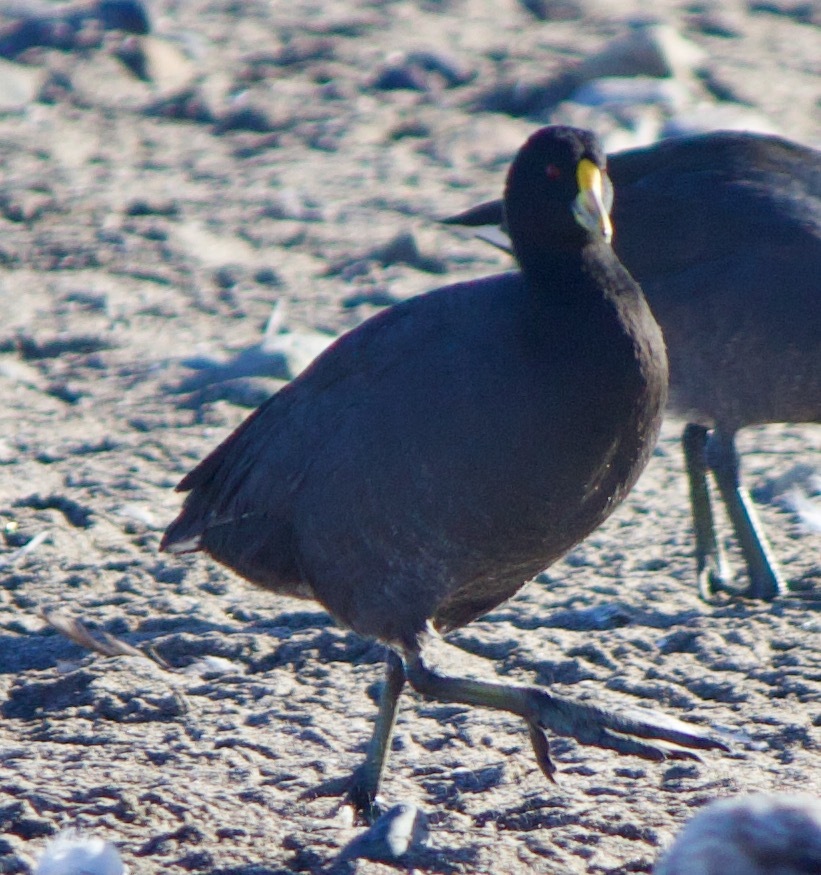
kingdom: Animalia
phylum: Chordata
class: Aves
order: Gruiformes
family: Rallidae
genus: Fulica
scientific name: Fulica leucoptera
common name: White-winged coot
